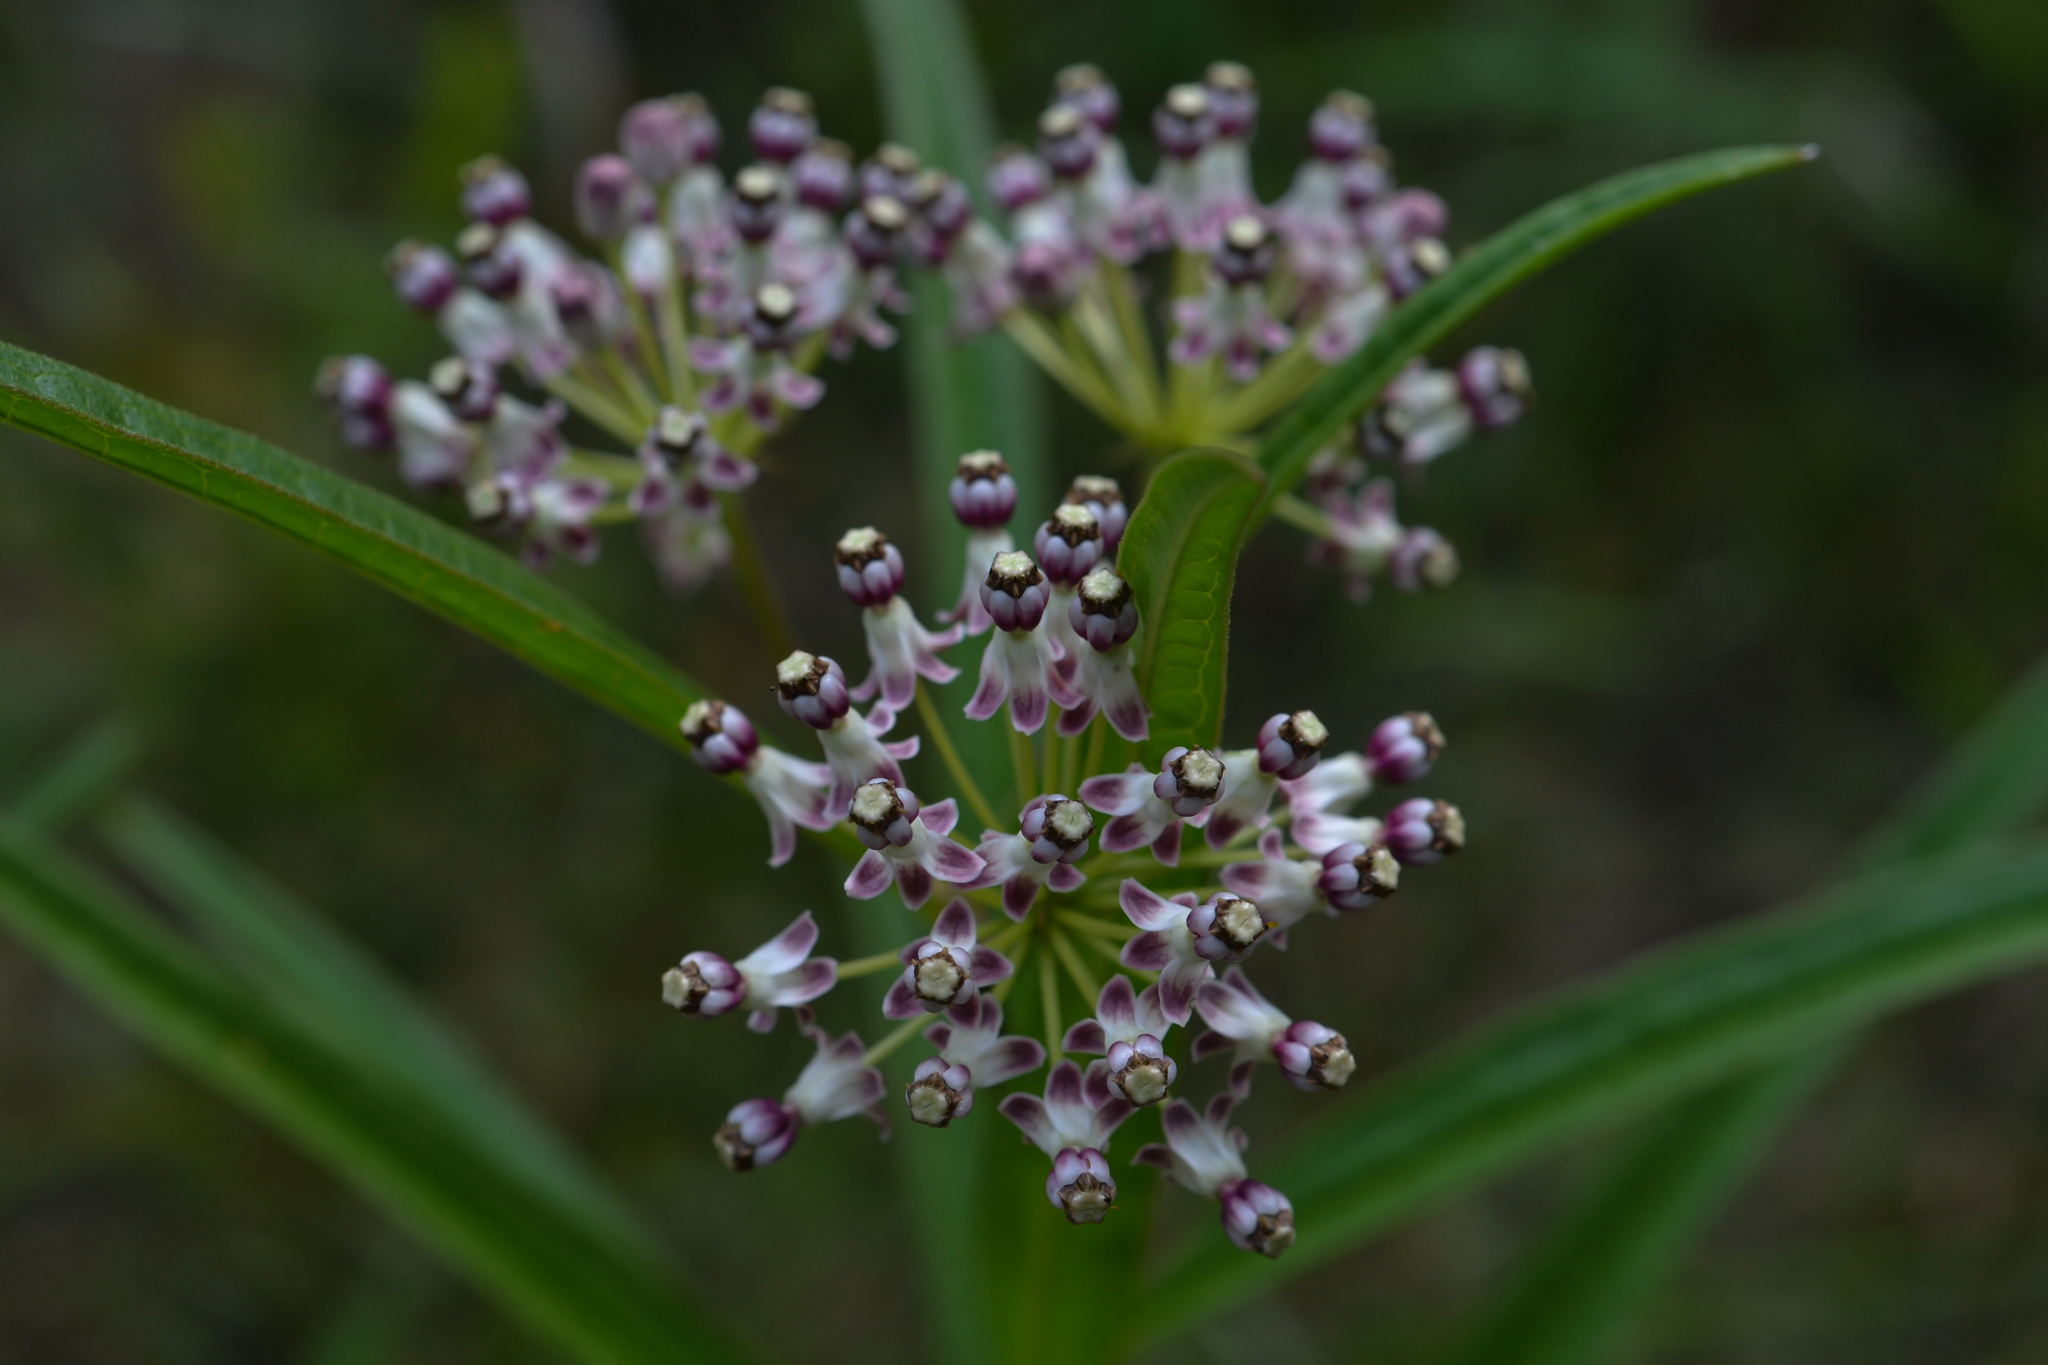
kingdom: Plantae
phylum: Tracheophyta
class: Magnoliopsida
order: Gentianales
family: Apocynaceae
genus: Asclepias
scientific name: Asclepias longifolia
